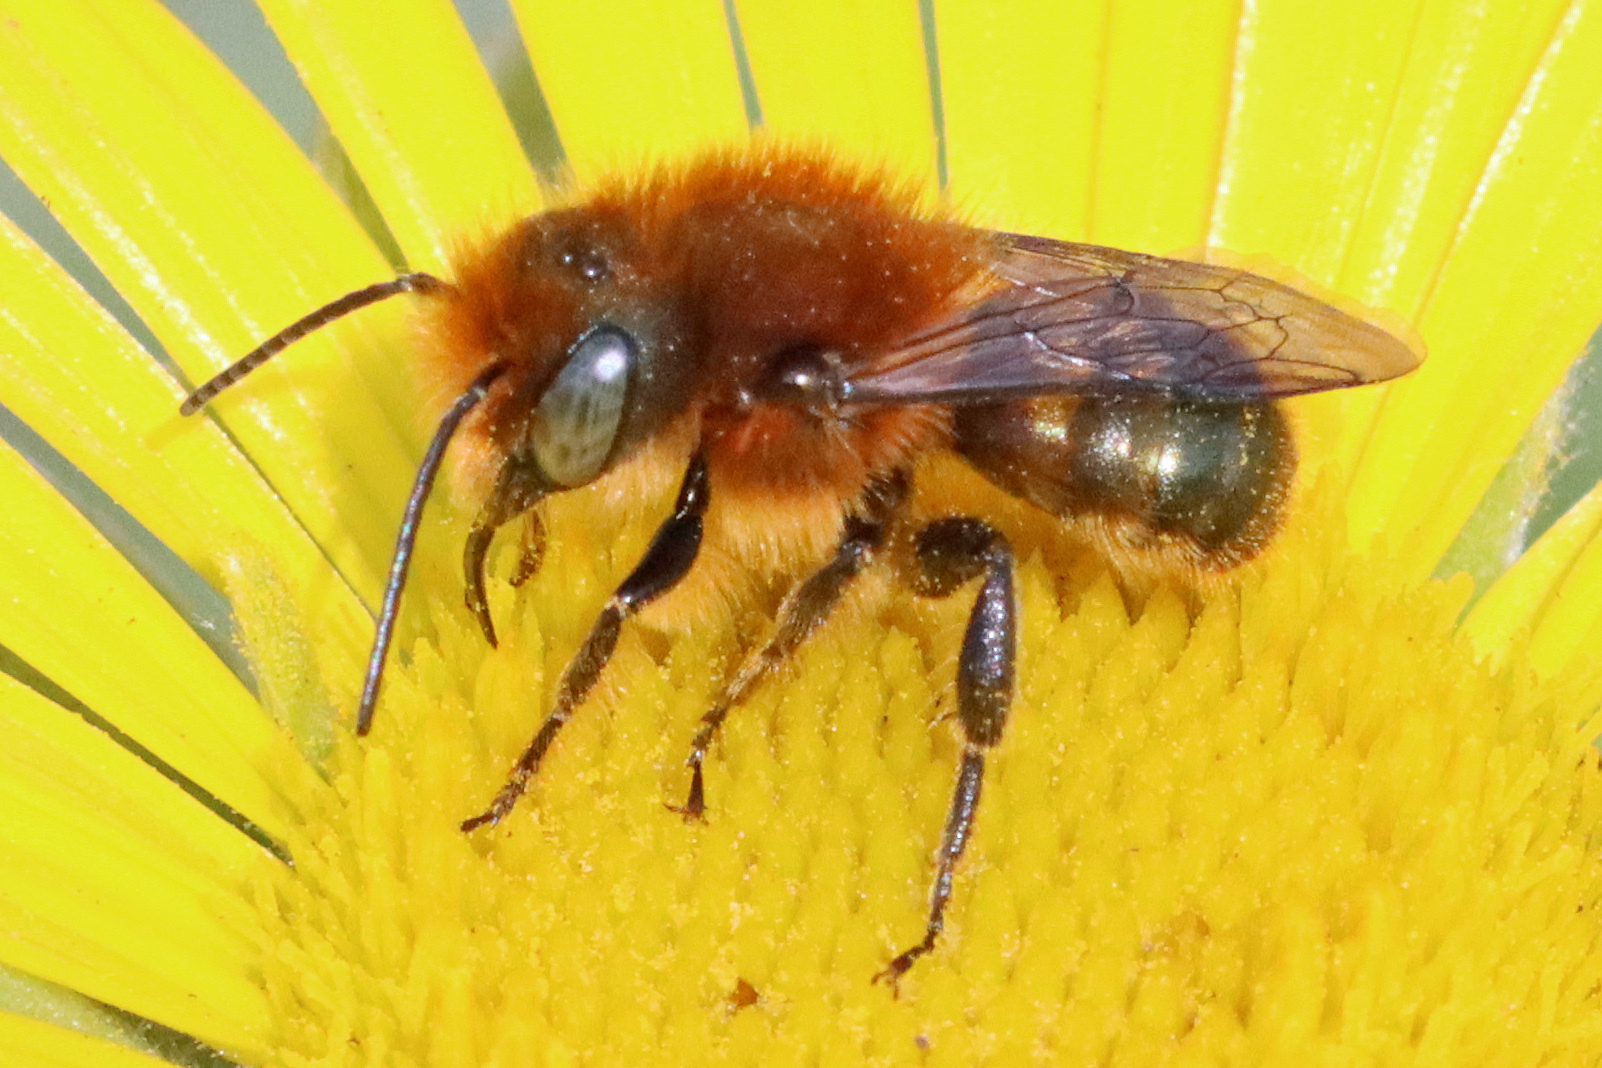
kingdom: Animalia
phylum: Arthropoda
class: Insecta
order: Hymenoptera
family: Megachilidae
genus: Osmia
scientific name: Osmia latreillei
